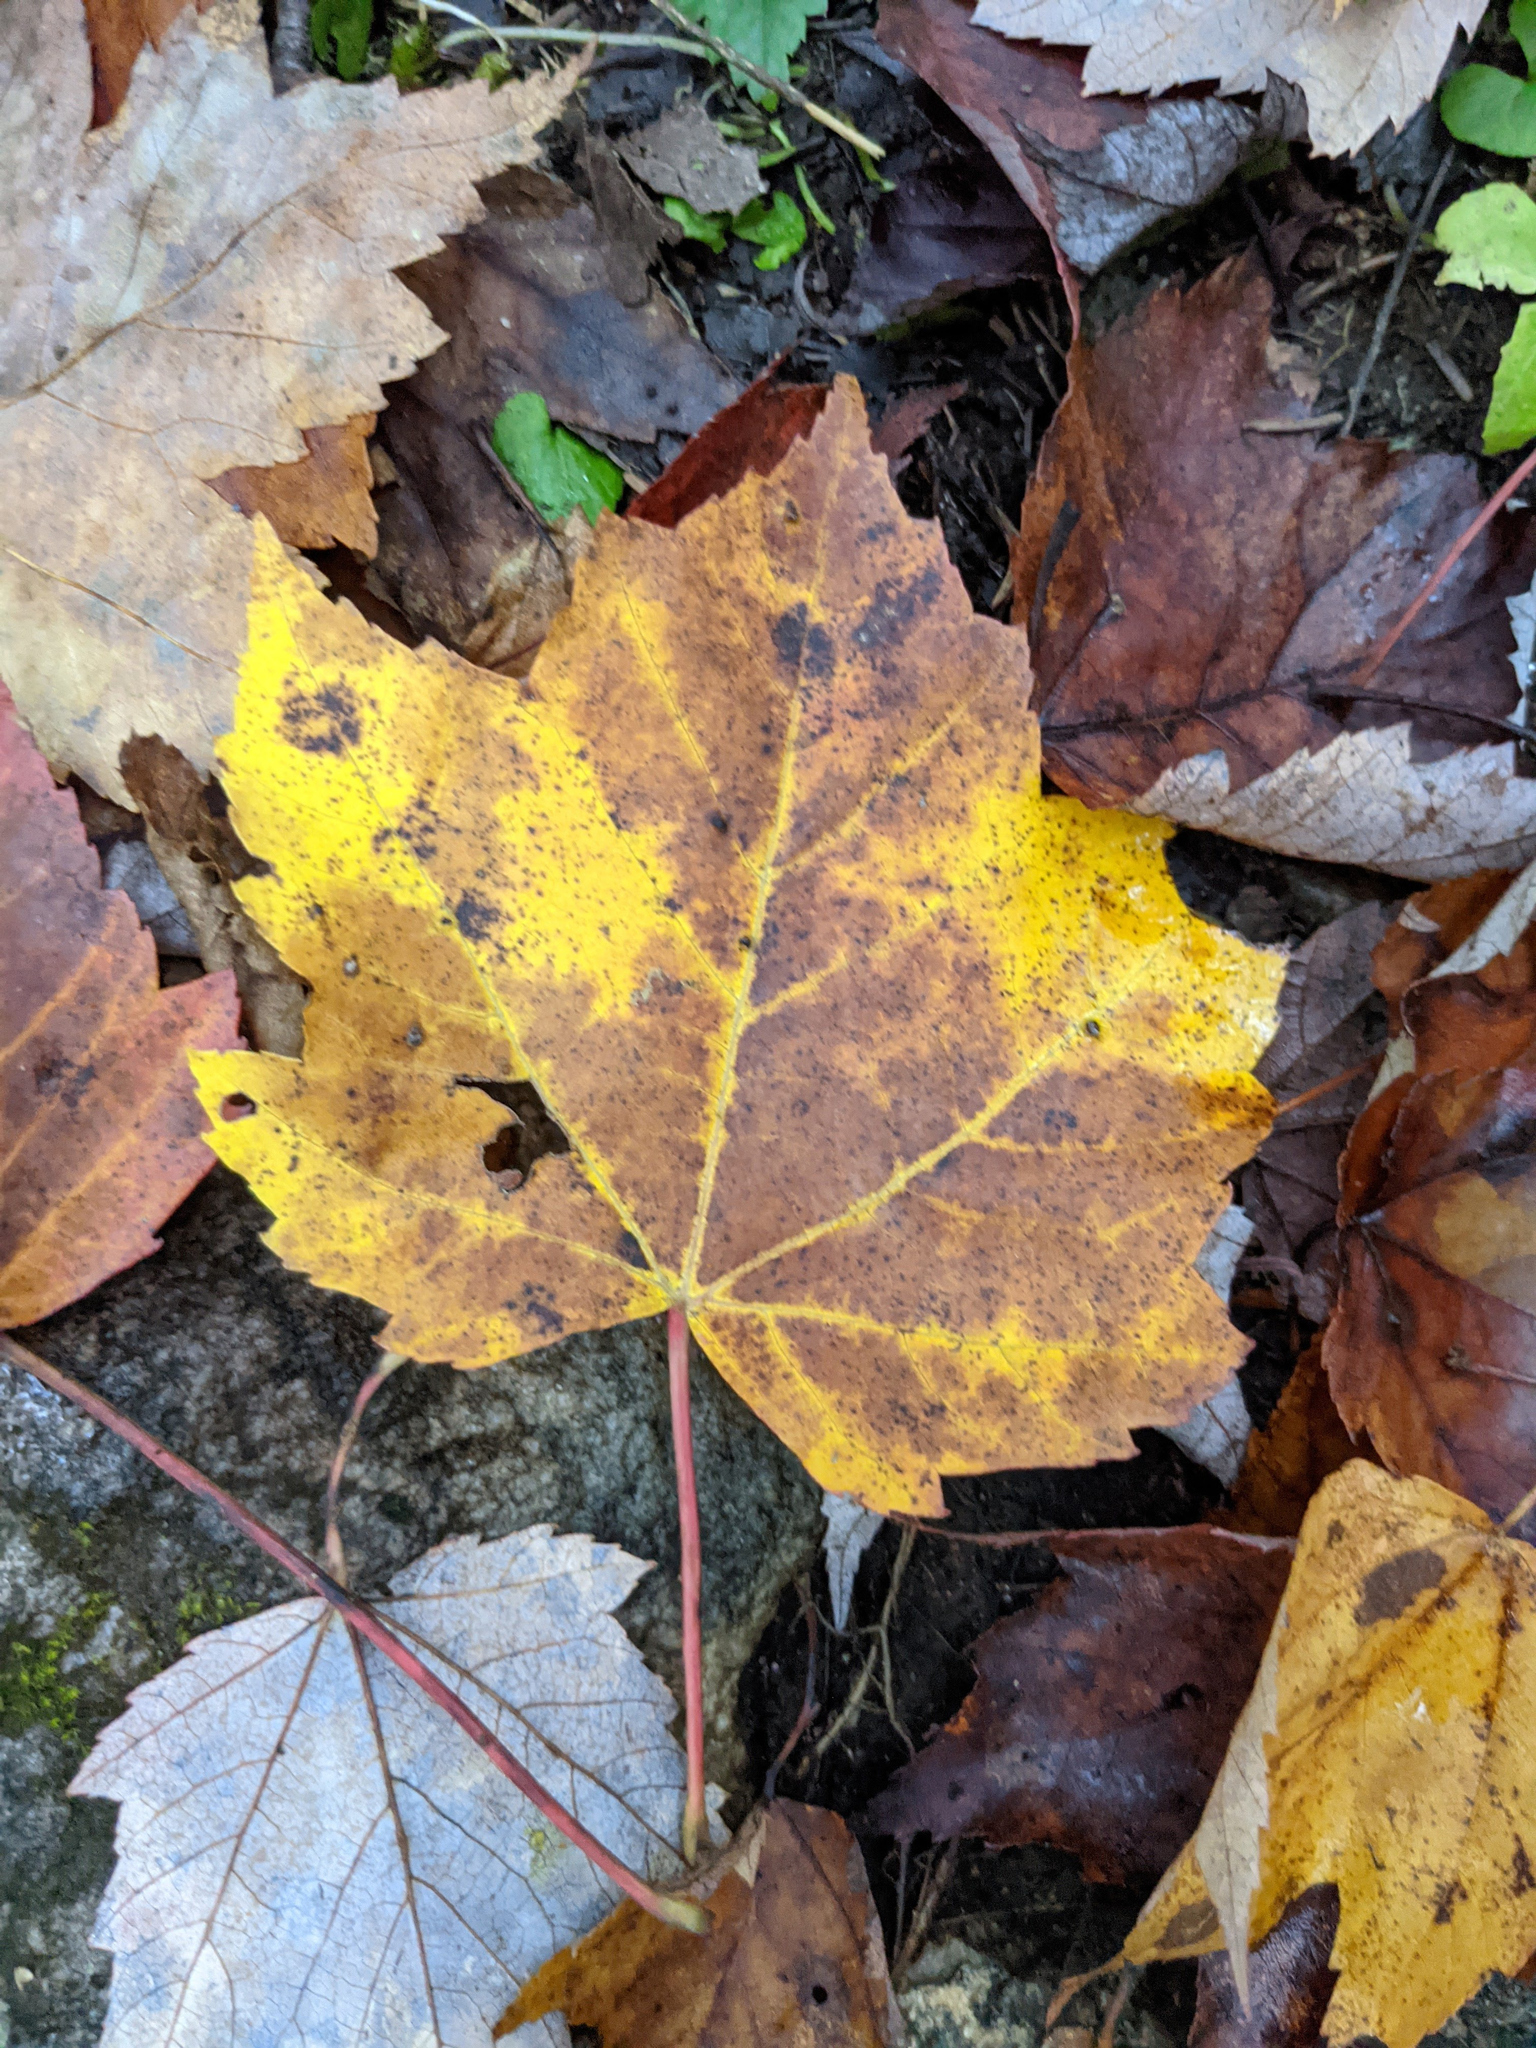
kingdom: Plantae
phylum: Tracheophyta
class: Magnoliopsida
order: Sapindales
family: Sapindaceae
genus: Acer
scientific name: Acer rubrum
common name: Red maple
